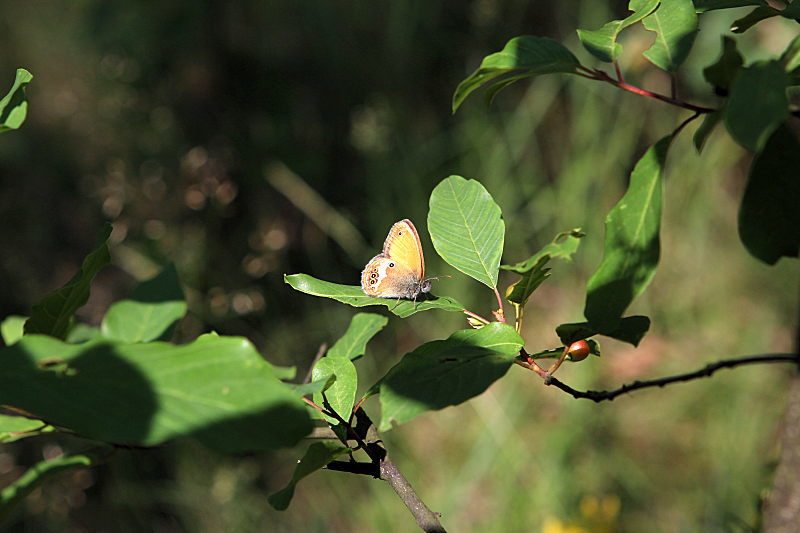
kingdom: Animalia
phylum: Arthropoda
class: Insecta
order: Lepidoptera
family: Nymphalidae
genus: Coenonympha
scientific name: Coenonympha arcania
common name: Pearly heath
